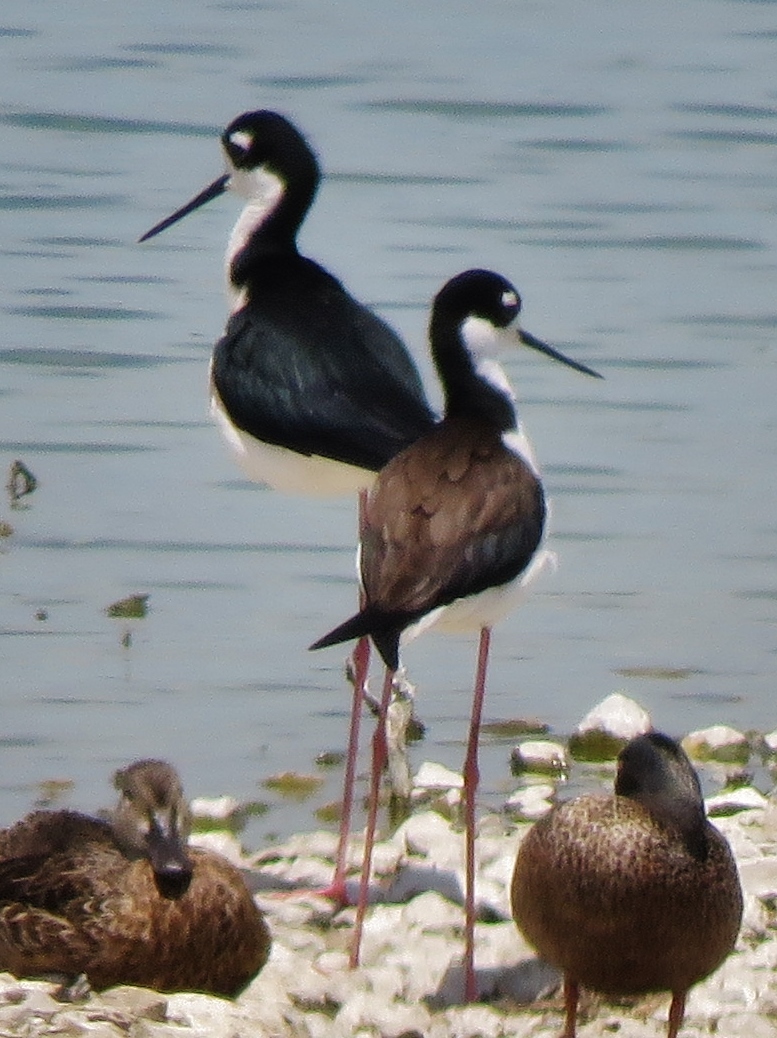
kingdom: Animalia
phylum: Chordata
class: Aves
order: Charadriiformes
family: Recurvirostridae
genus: Himantopus
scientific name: Himantopus mexicanus
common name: Black-necked stilt
